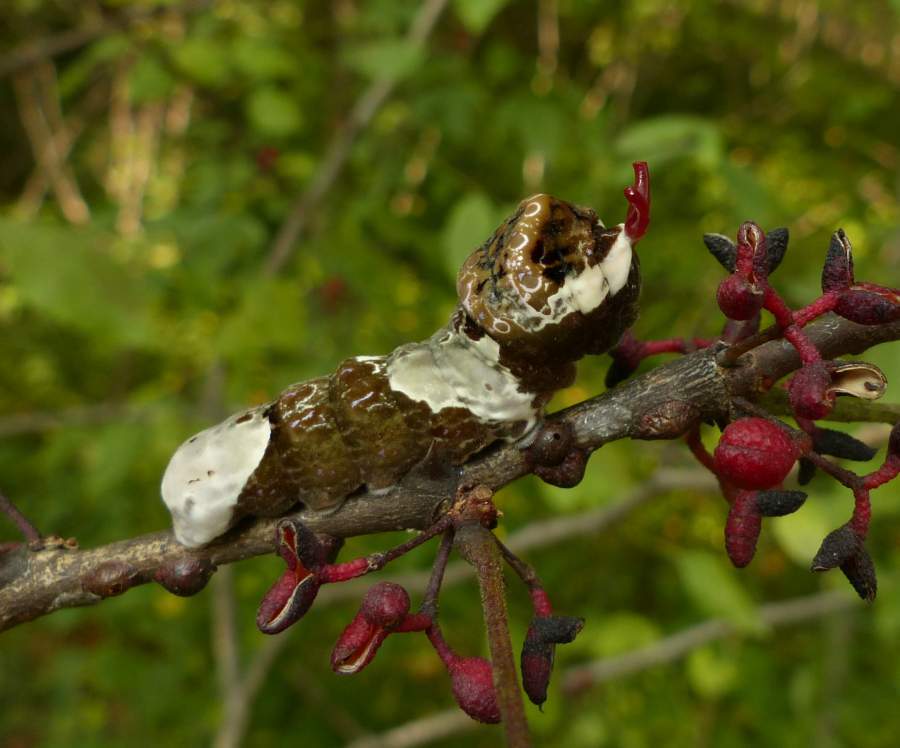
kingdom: Animalia
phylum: Arthropoda
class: Insecta
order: Lepidoptera
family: Papilionidae
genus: Papilio
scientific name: Papilio cresphontes
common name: Giant swallowtail
